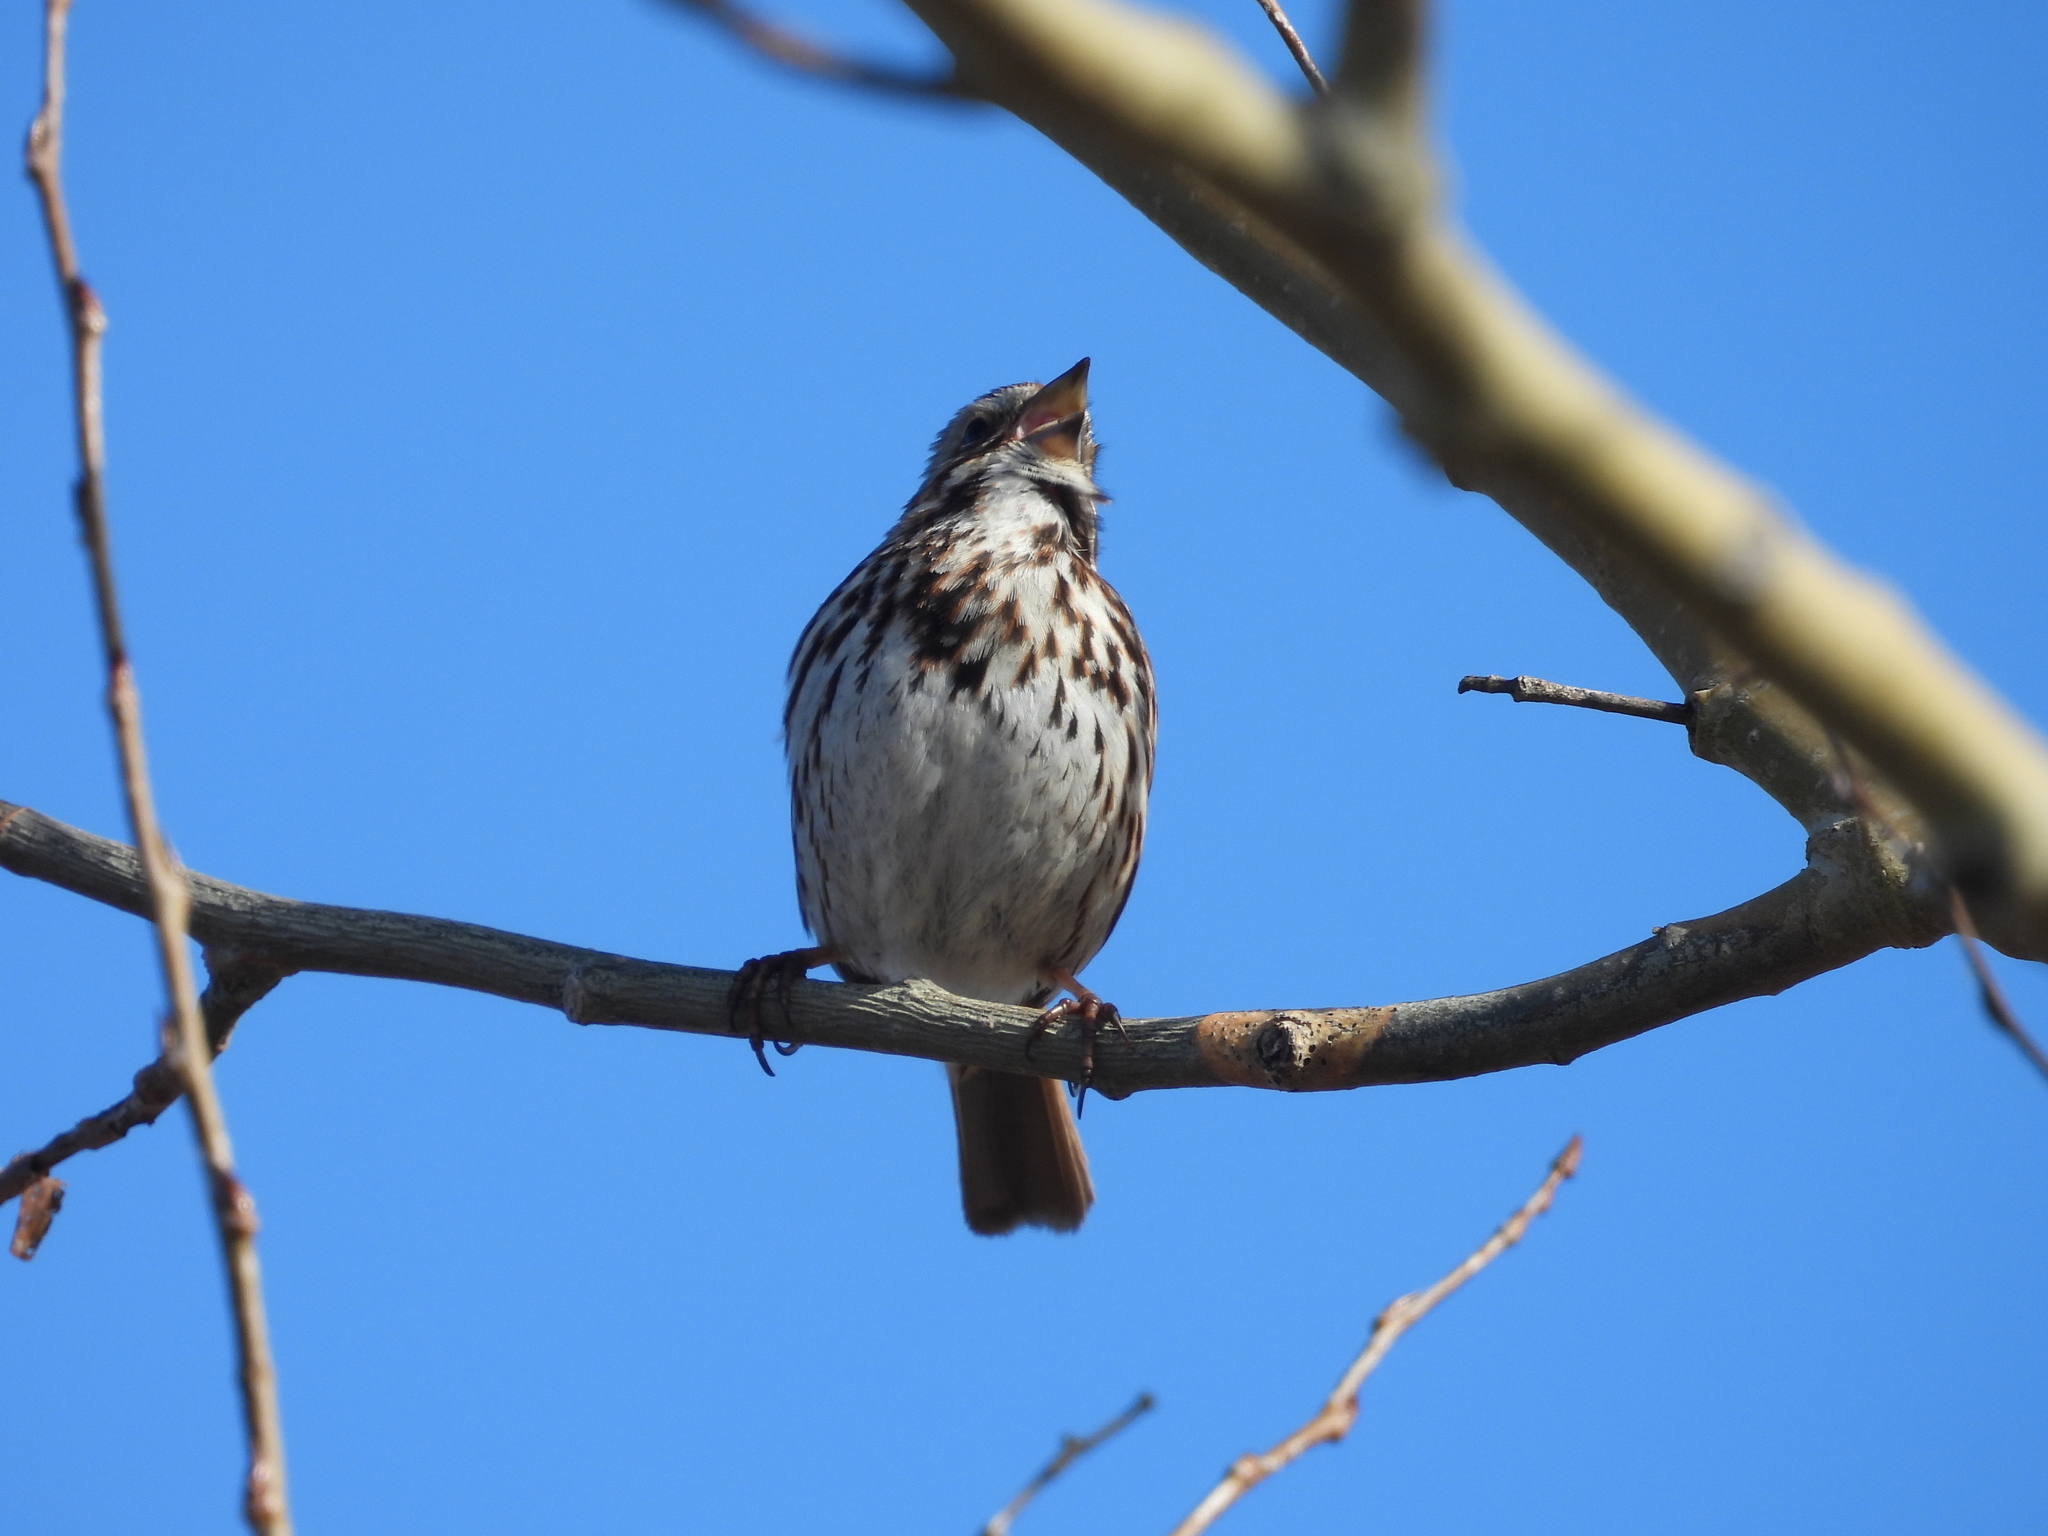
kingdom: Animalia
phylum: Chordata
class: Aves
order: Passeriformes
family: Passerellidae
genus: Melospiza
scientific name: Melospiza melodia
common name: Song sparrow
